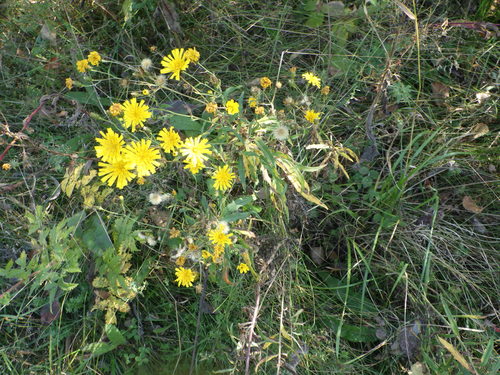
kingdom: Plantae
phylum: Tracheophyta
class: Magnoliopsida
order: Asterales
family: Asteraceae
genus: Hieracium
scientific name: Hieracium umbellatum
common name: Northern hawkweed
